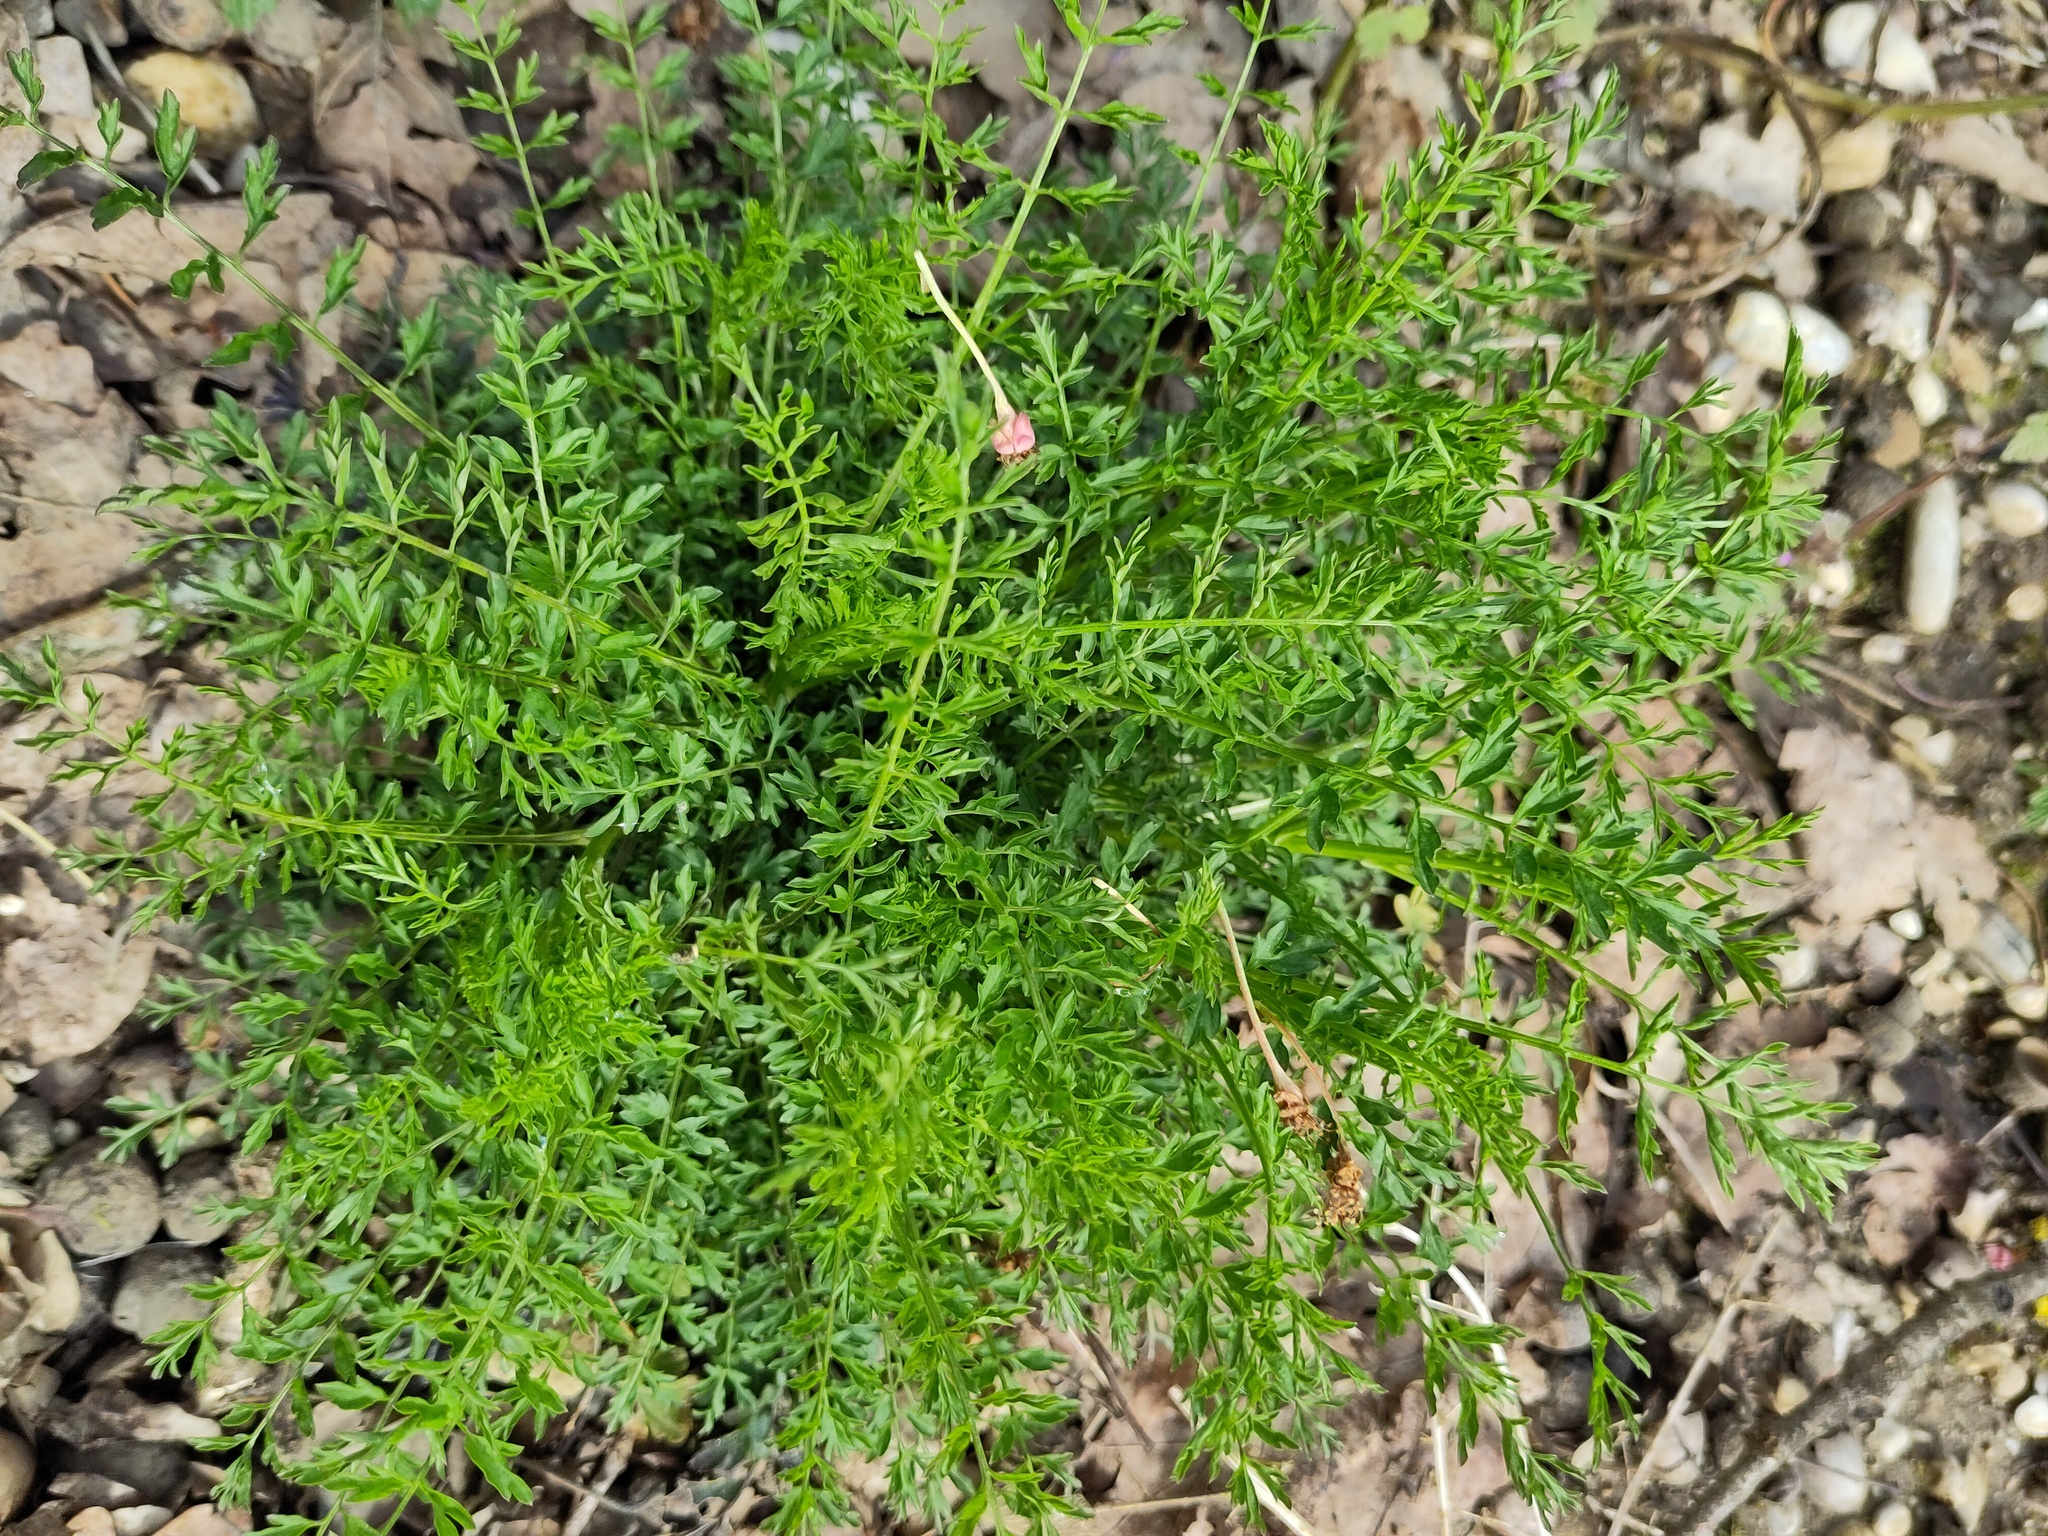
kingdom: Plantae
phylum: Tracheophyta
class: Magnoliopsida
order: Brassicales
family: Brassicaceae
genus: Cardamine
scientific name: Cardamine impatiens
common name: Narrow-leaved bitter-cress
